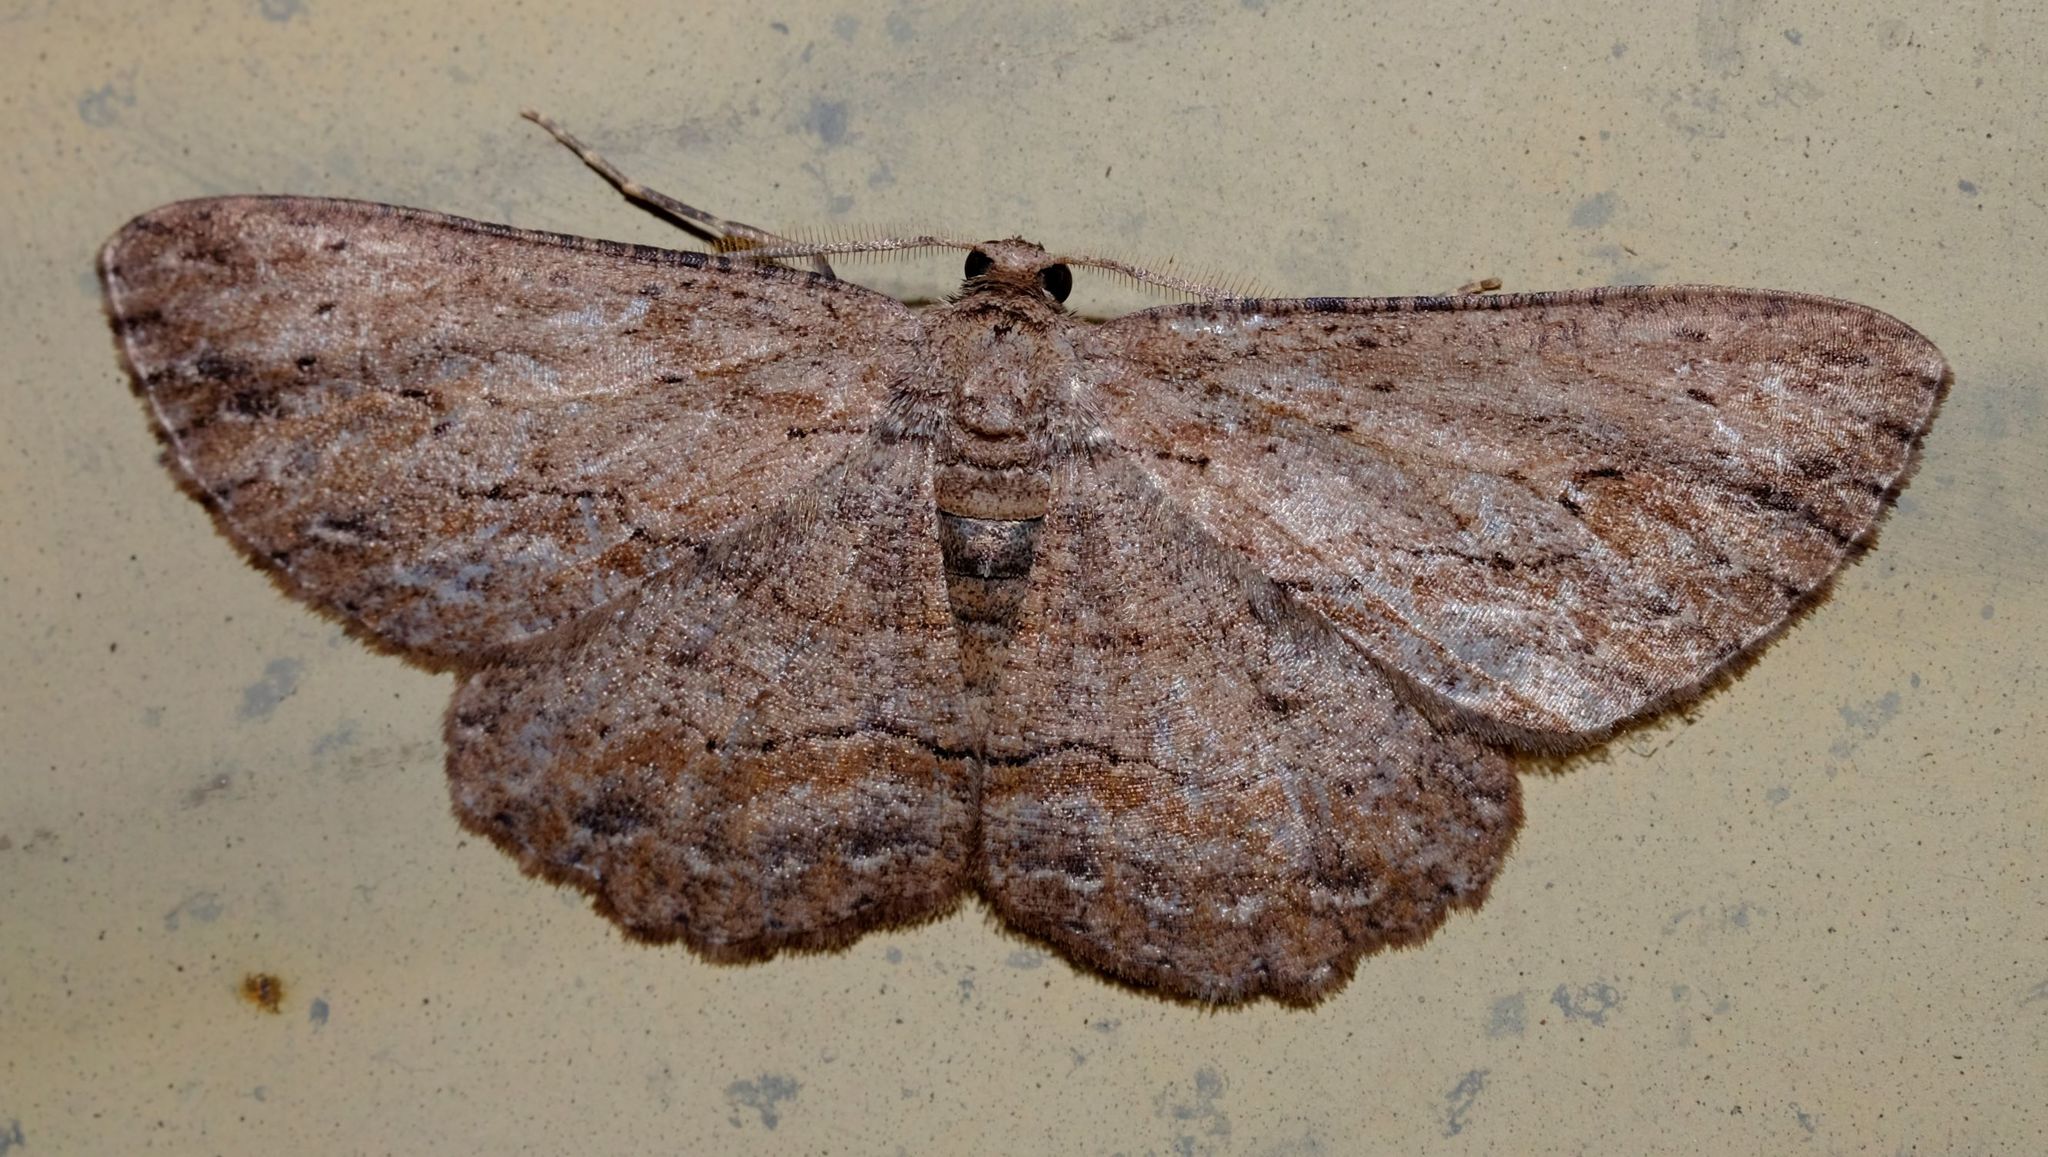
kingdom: Animalia
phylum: Arthropoda
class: Insecta
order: Lepidoptera
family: Geometridae
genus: Ectropis
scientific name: Ectropis excursaria
